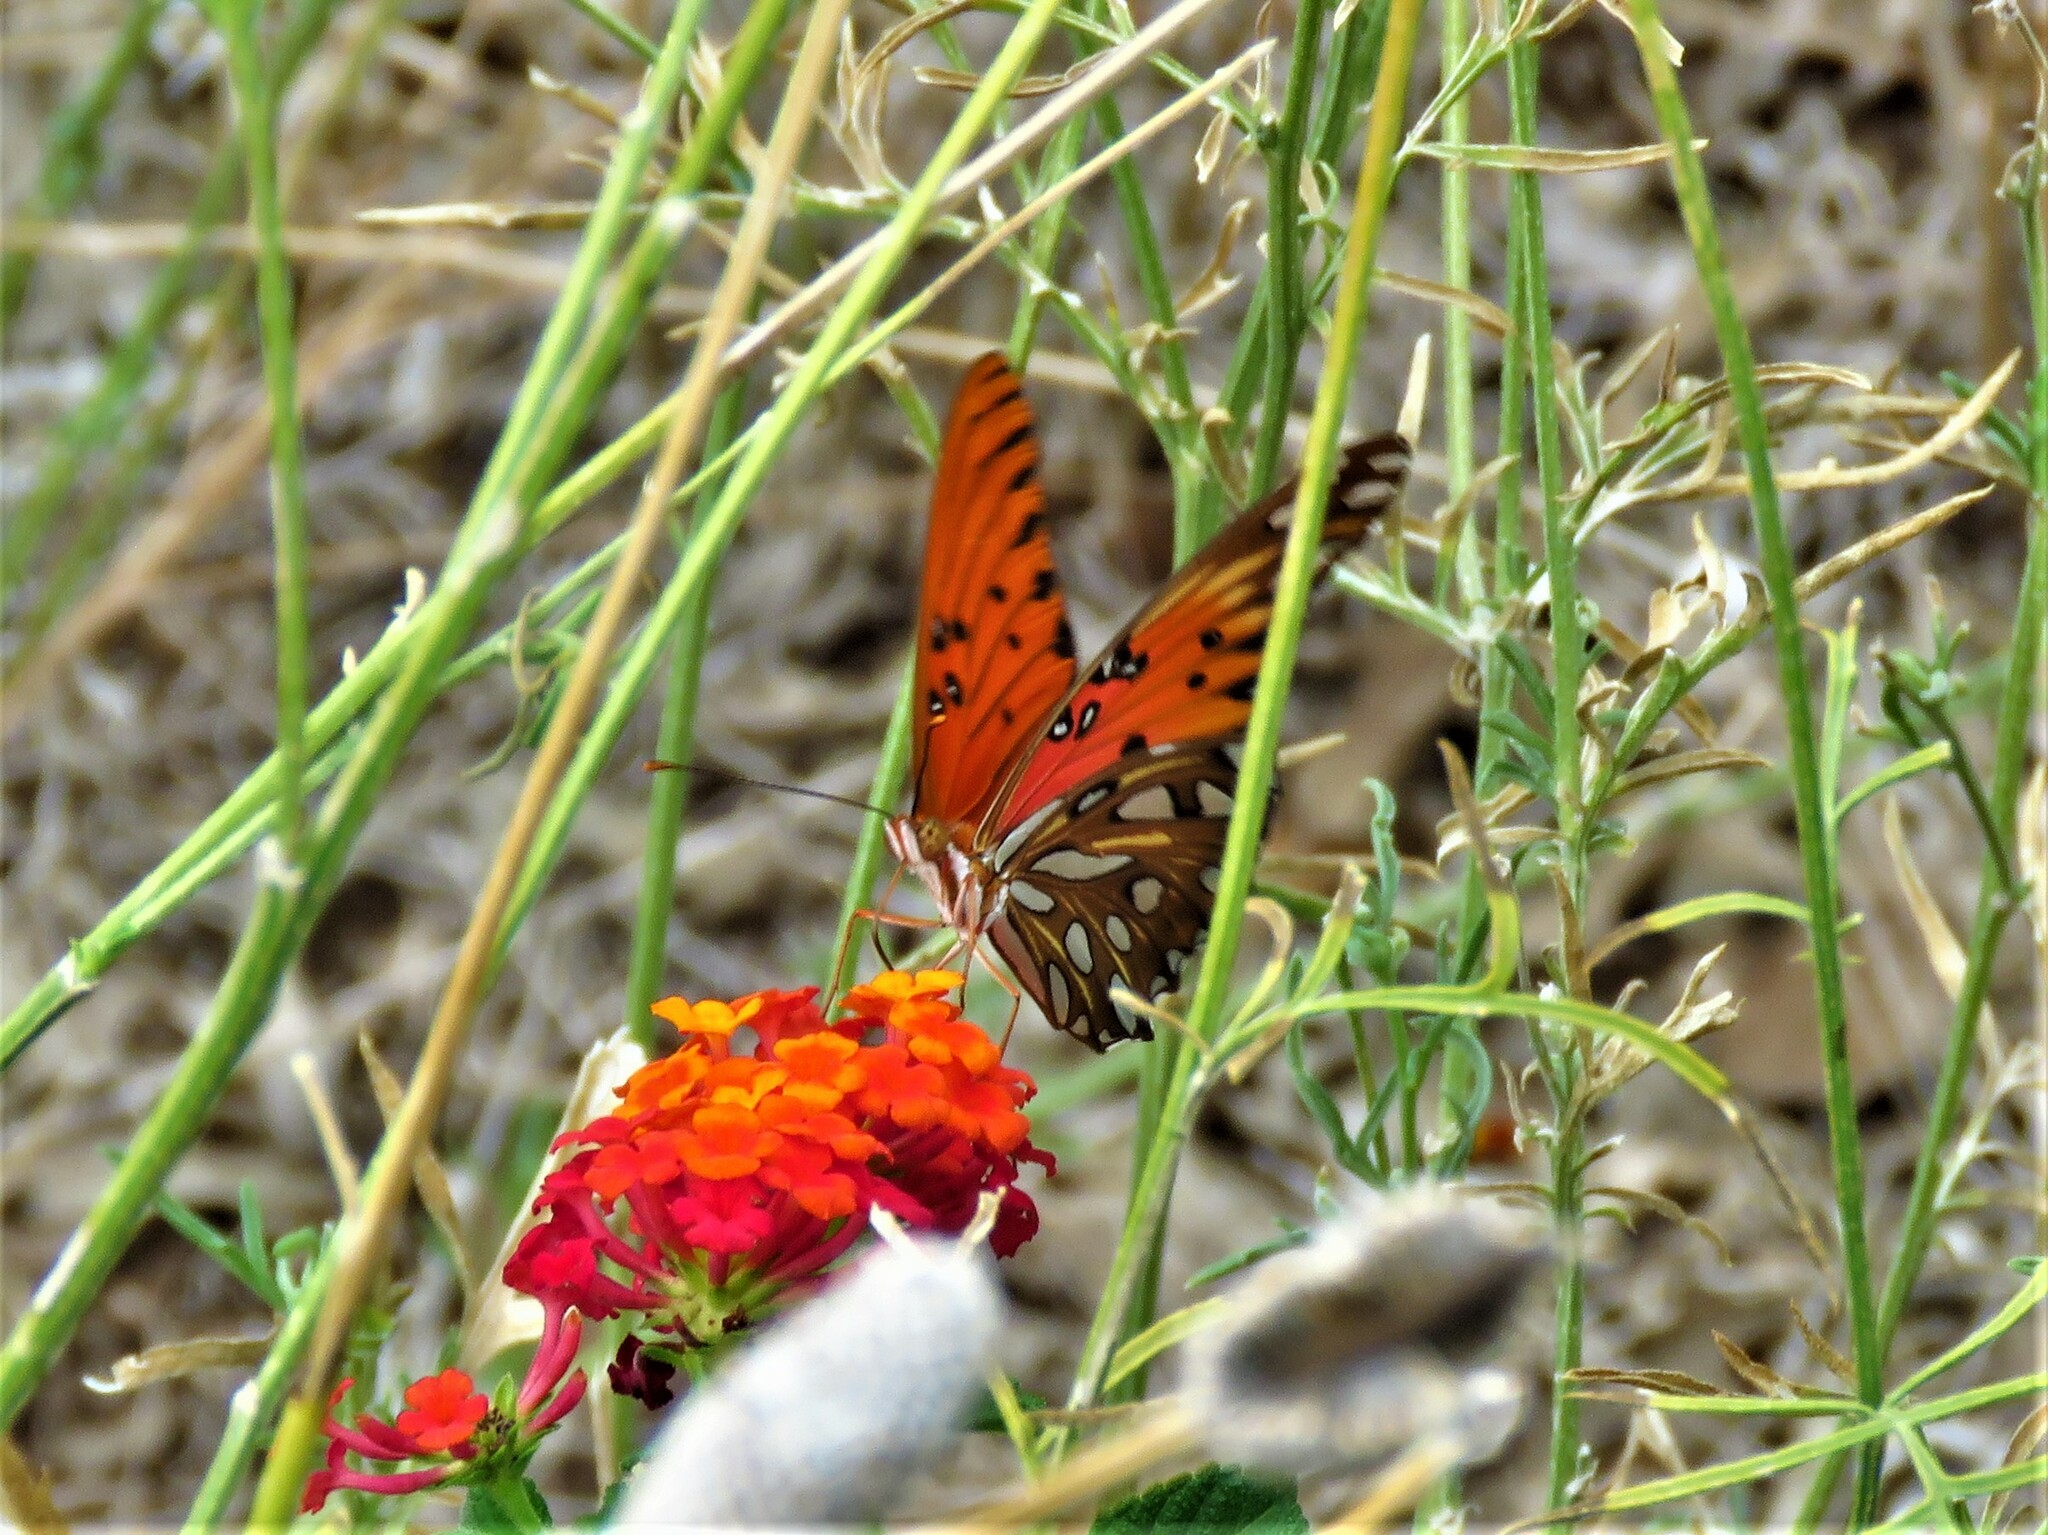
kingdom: Animalia
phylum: Arthropoda
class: Insecta
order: Lepidoptera
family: Nymphalidae
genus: Dione
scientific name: Dione vanillae
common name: Gulf fritillary
